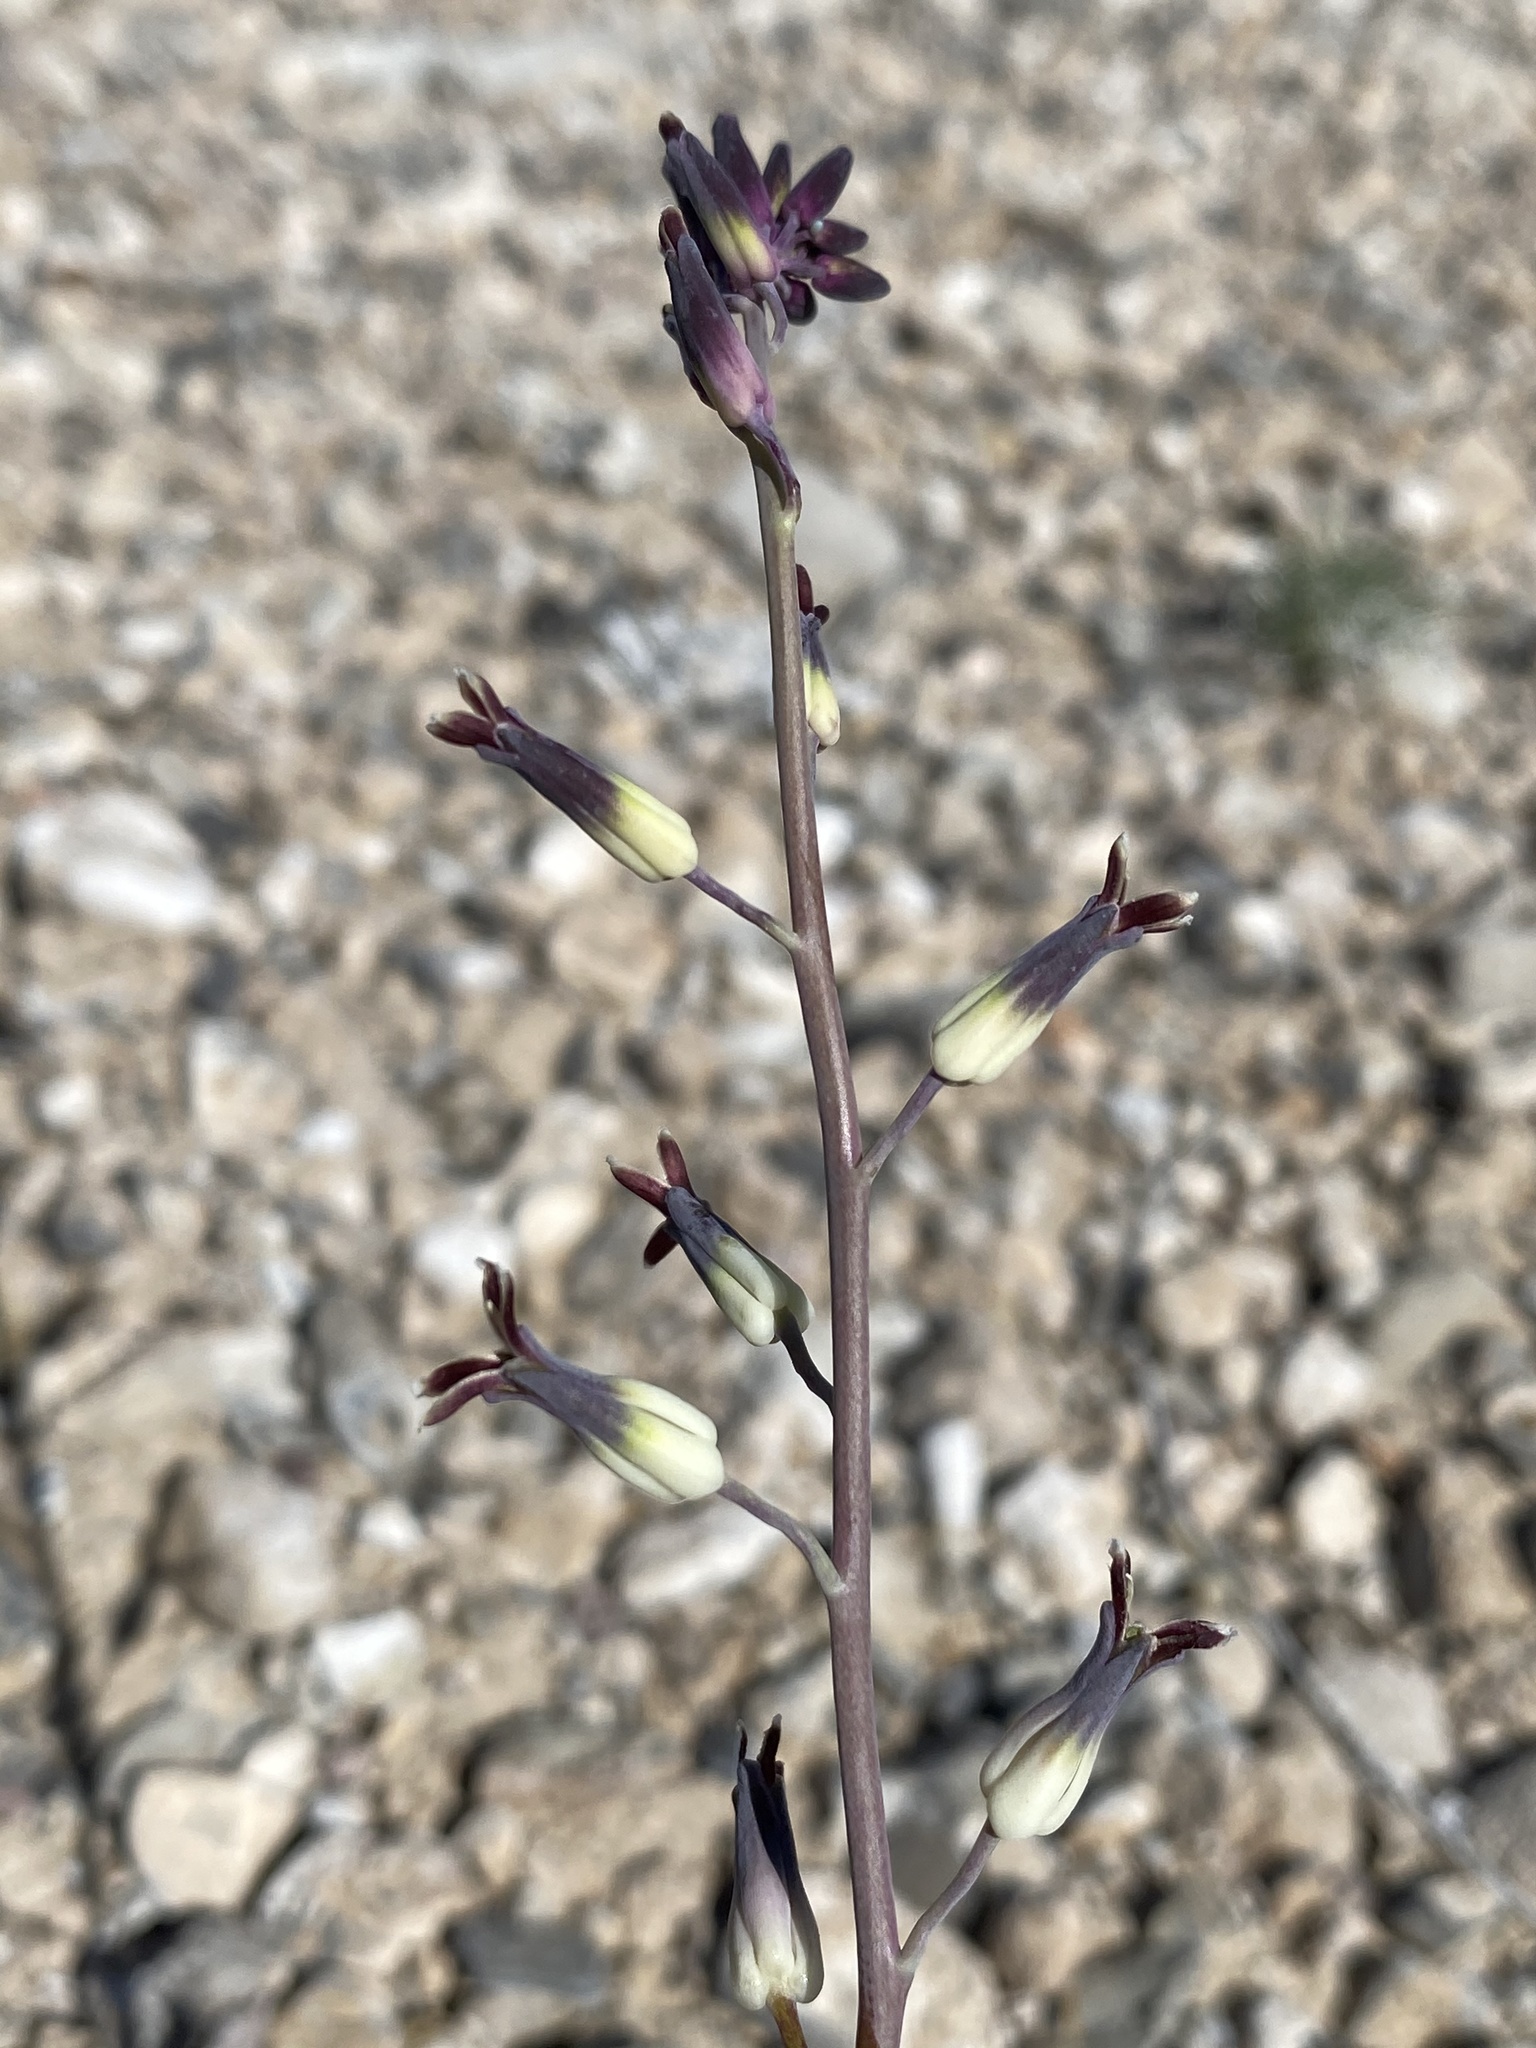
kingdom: Plantae
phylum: Tracheophyta
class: Magnoliopsida
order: Brassicales
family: Brassicaceae
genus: Streptanthus
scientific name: Streptanthus cordatus
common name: Heart-leaf jewel-flower
